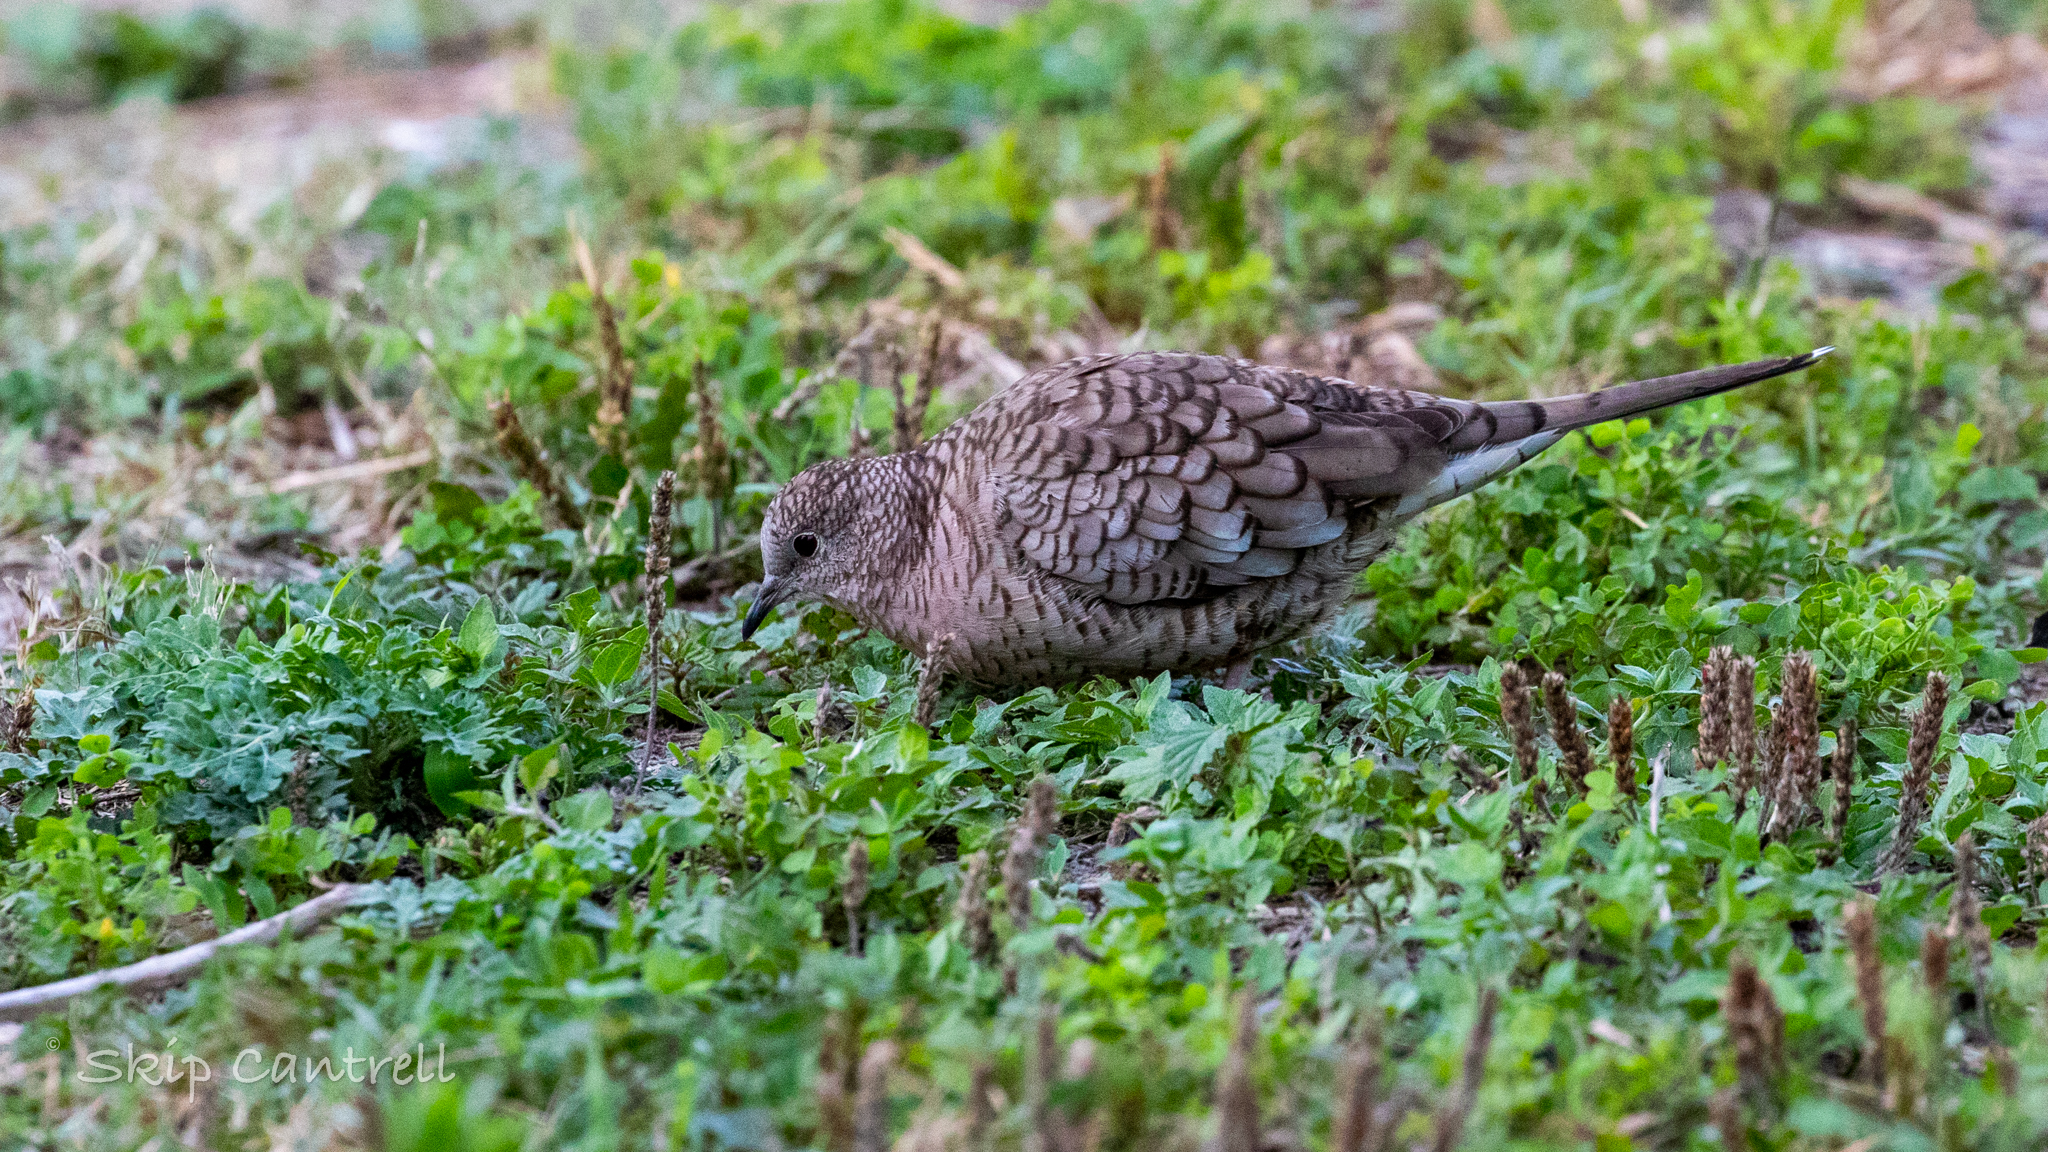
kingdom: Animalia
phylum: Chordata
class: Aves
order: Columbiformes
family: Columbidae
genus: Columbina
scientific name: Columbina inca
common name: Inca dove
